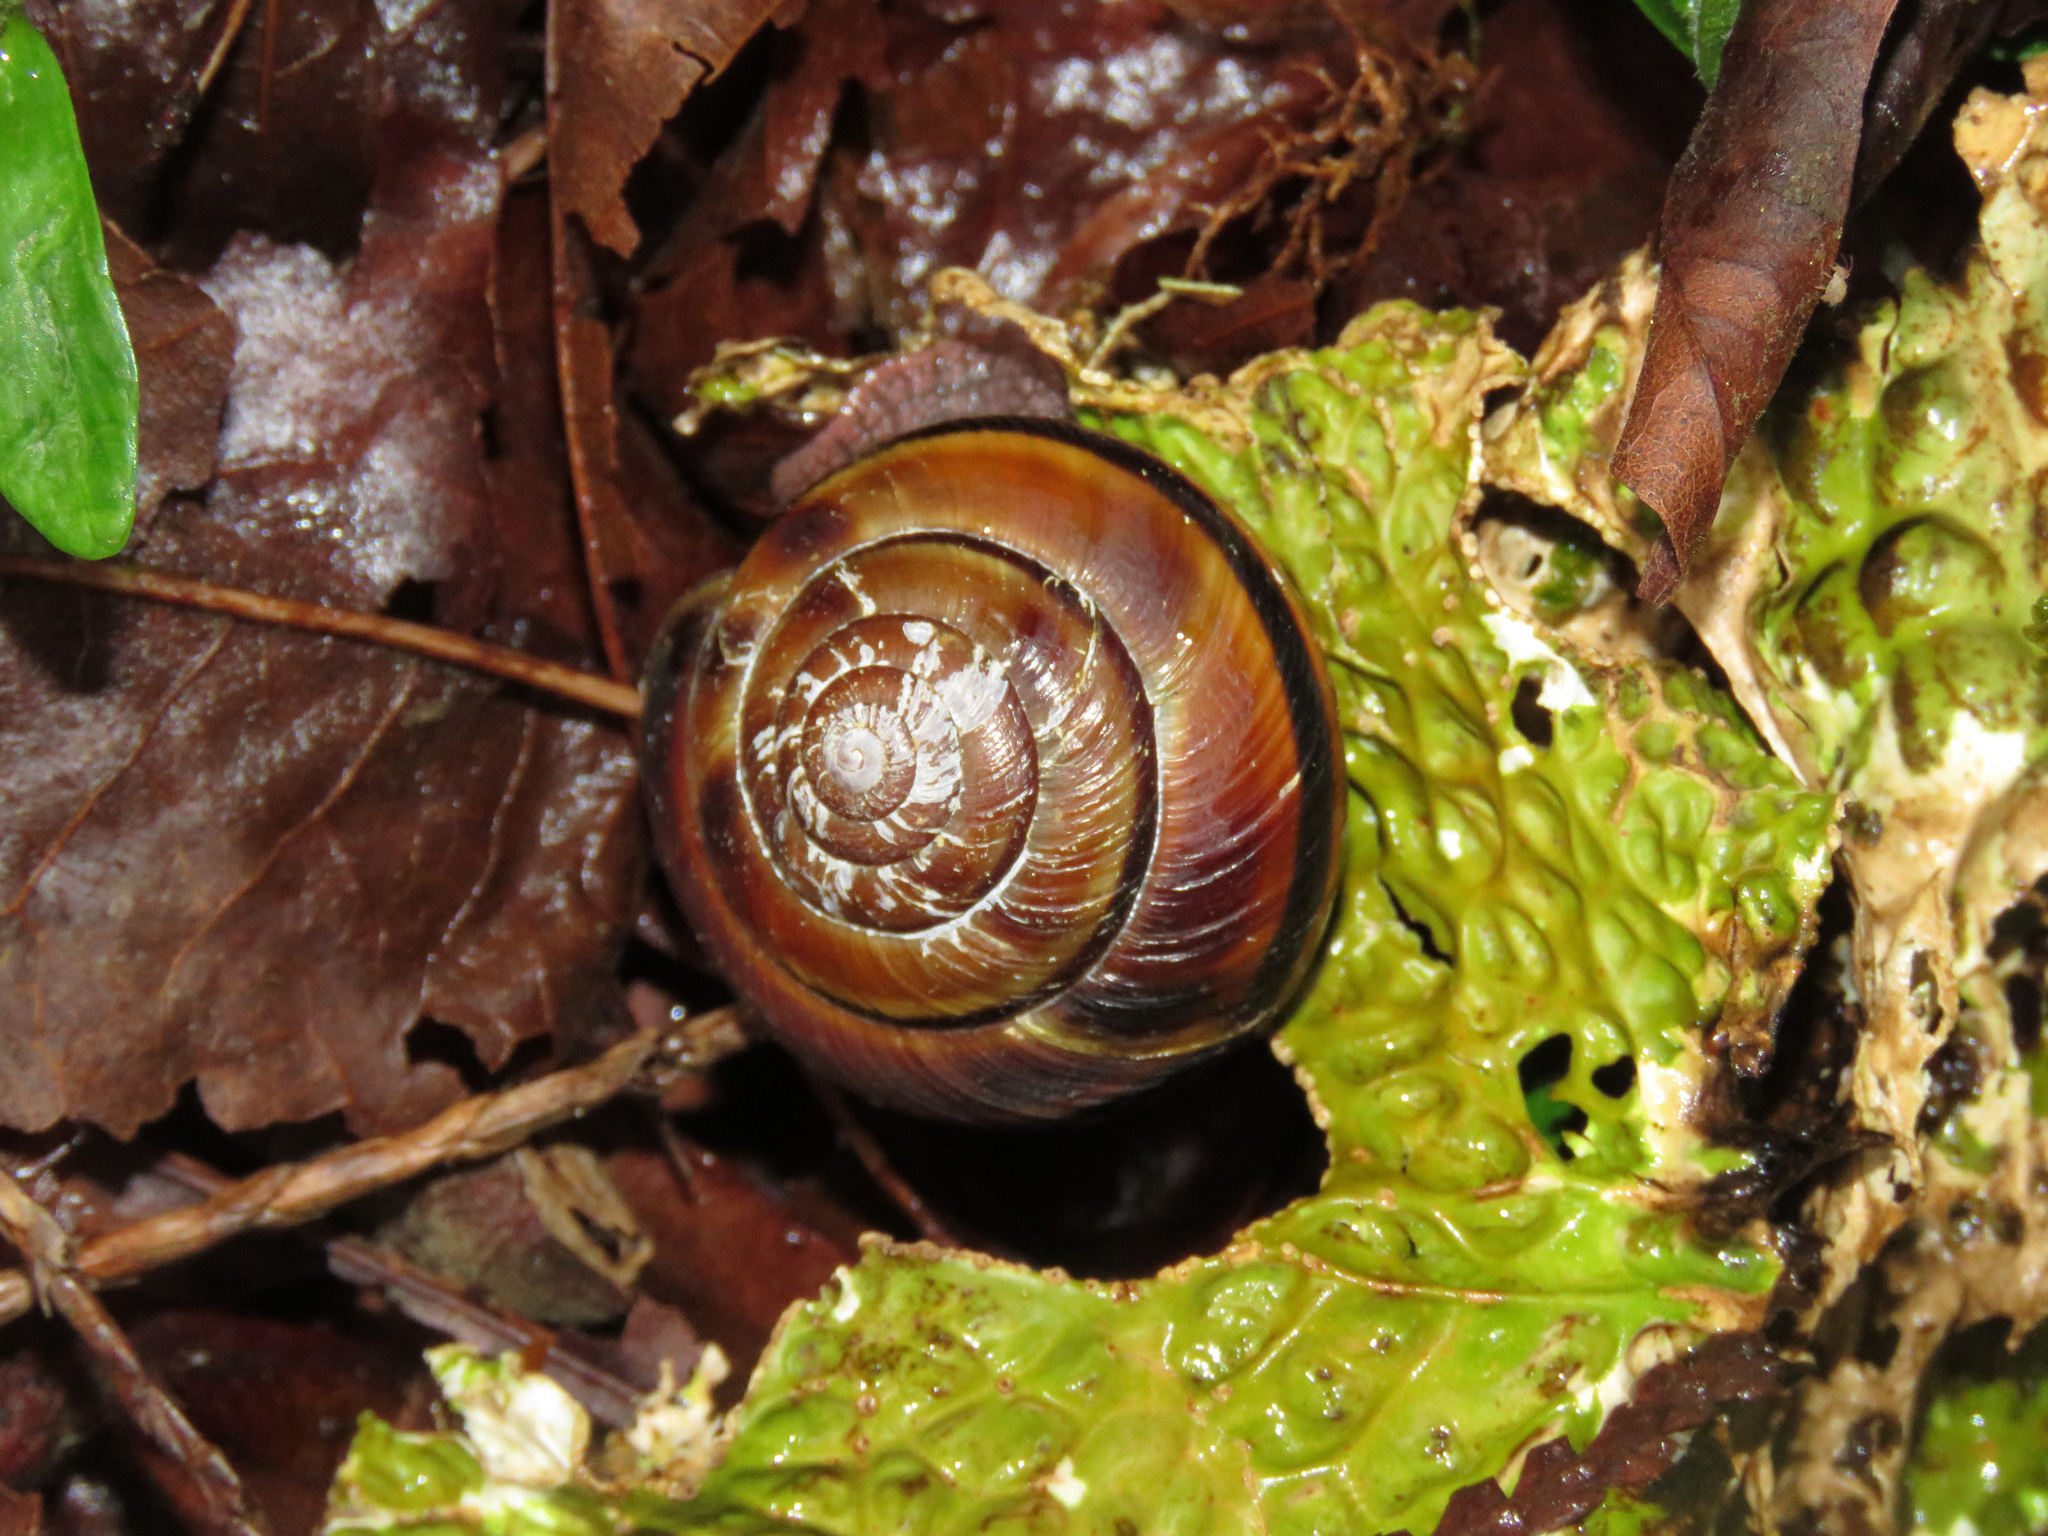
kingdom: Animalia
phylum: Mollusca
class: Gastropoda
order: Stylommatophora
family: Xanthonychidae
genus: Monadenia
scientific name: Monadenia fidelis
